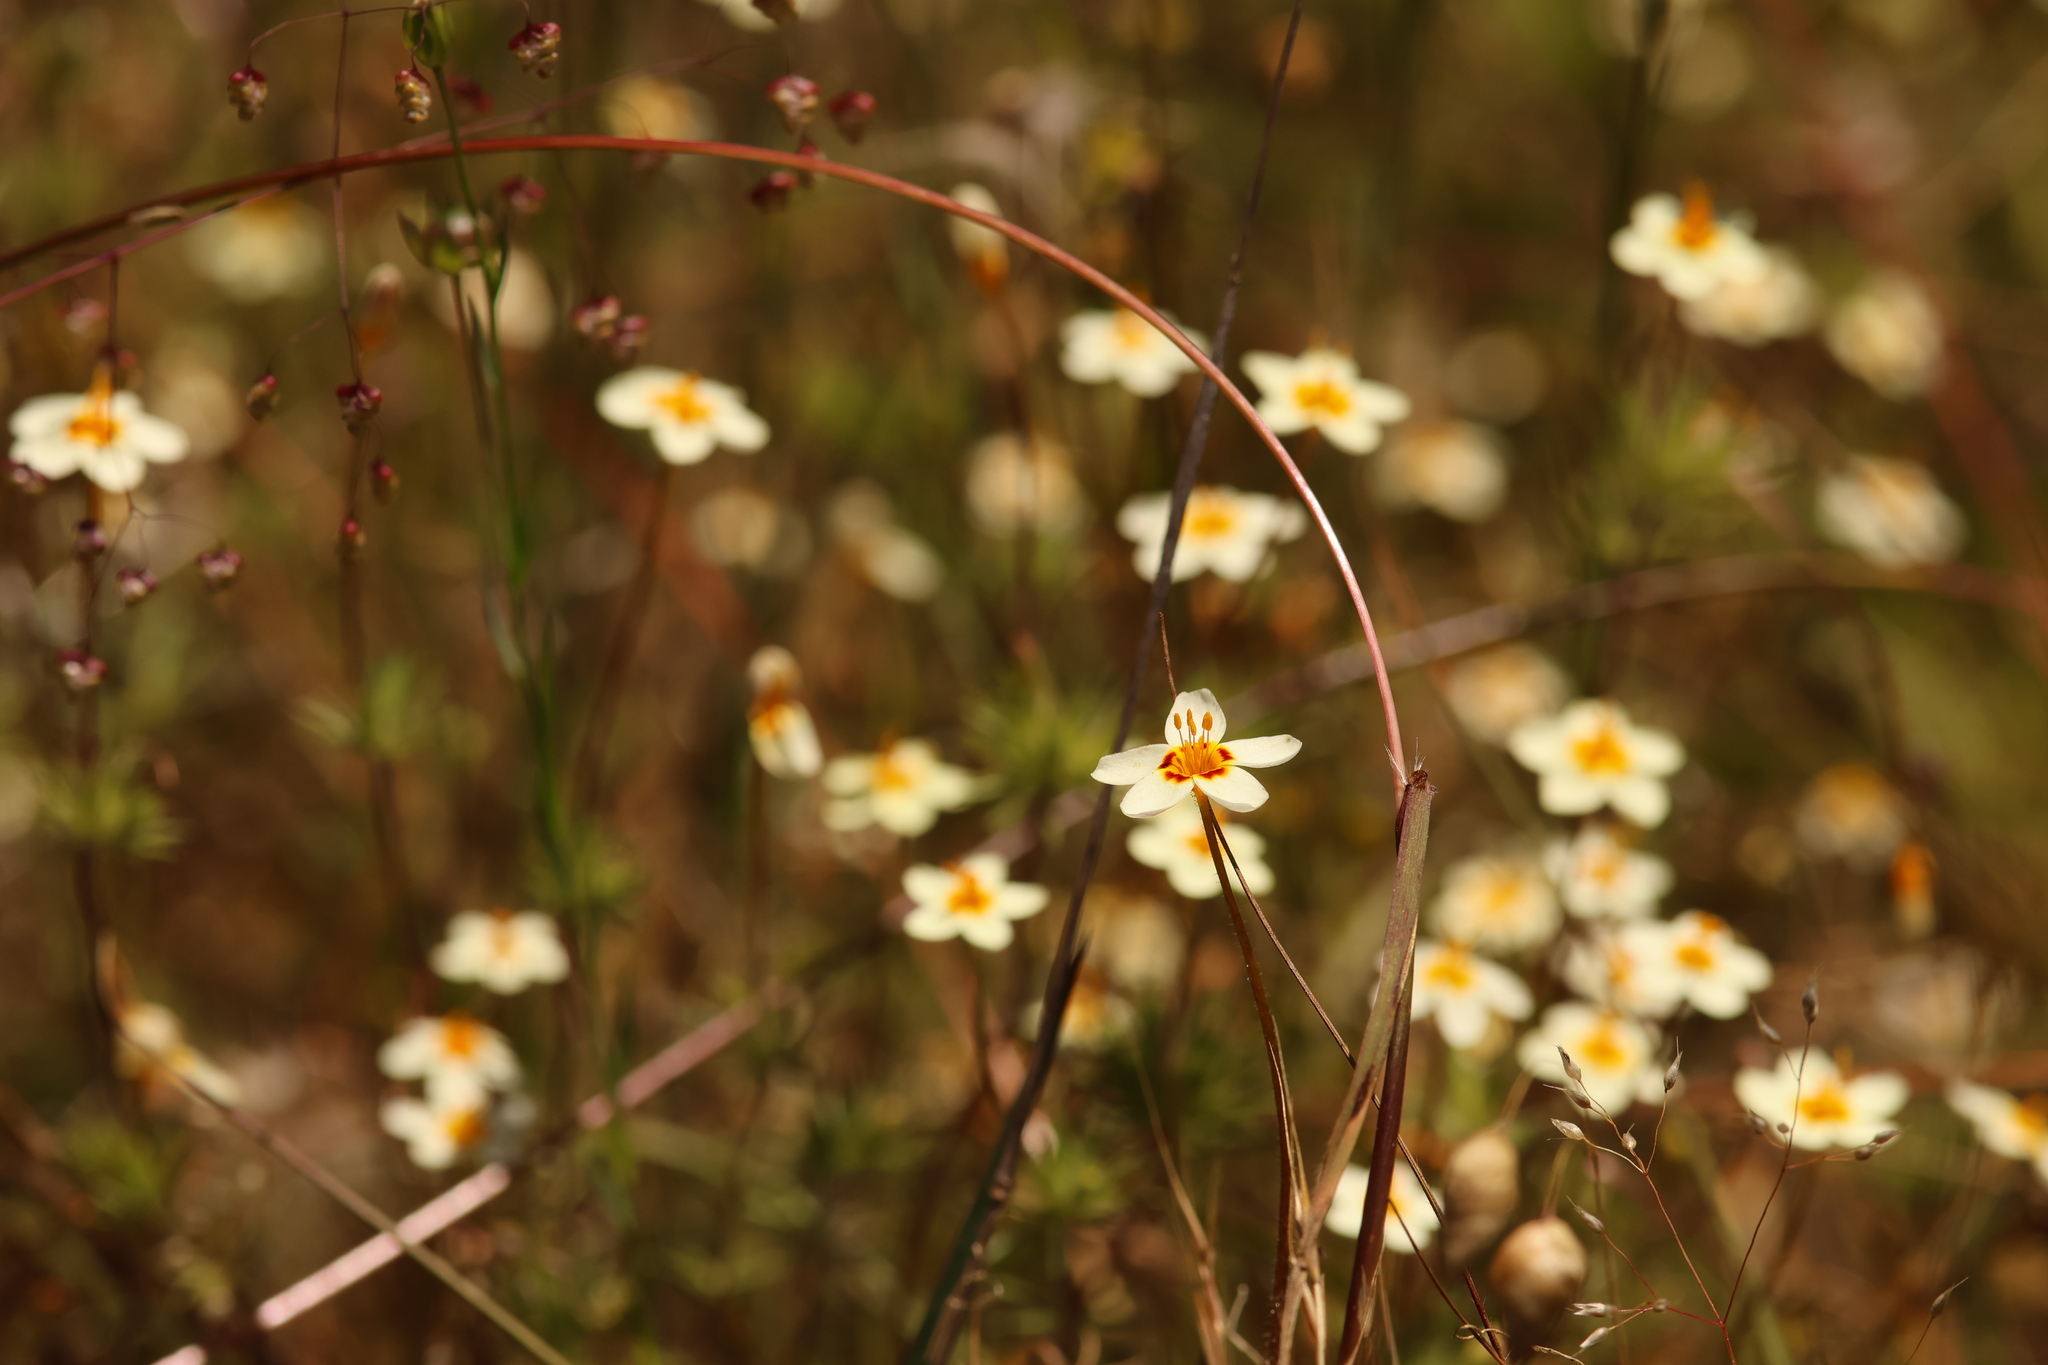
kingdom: Plantae
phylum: Tracheophyta
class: Magnoliopsida
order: Ericales
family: Polemoniaceae
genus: Leptosiphon
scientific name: Leptosiphon parviflorus
